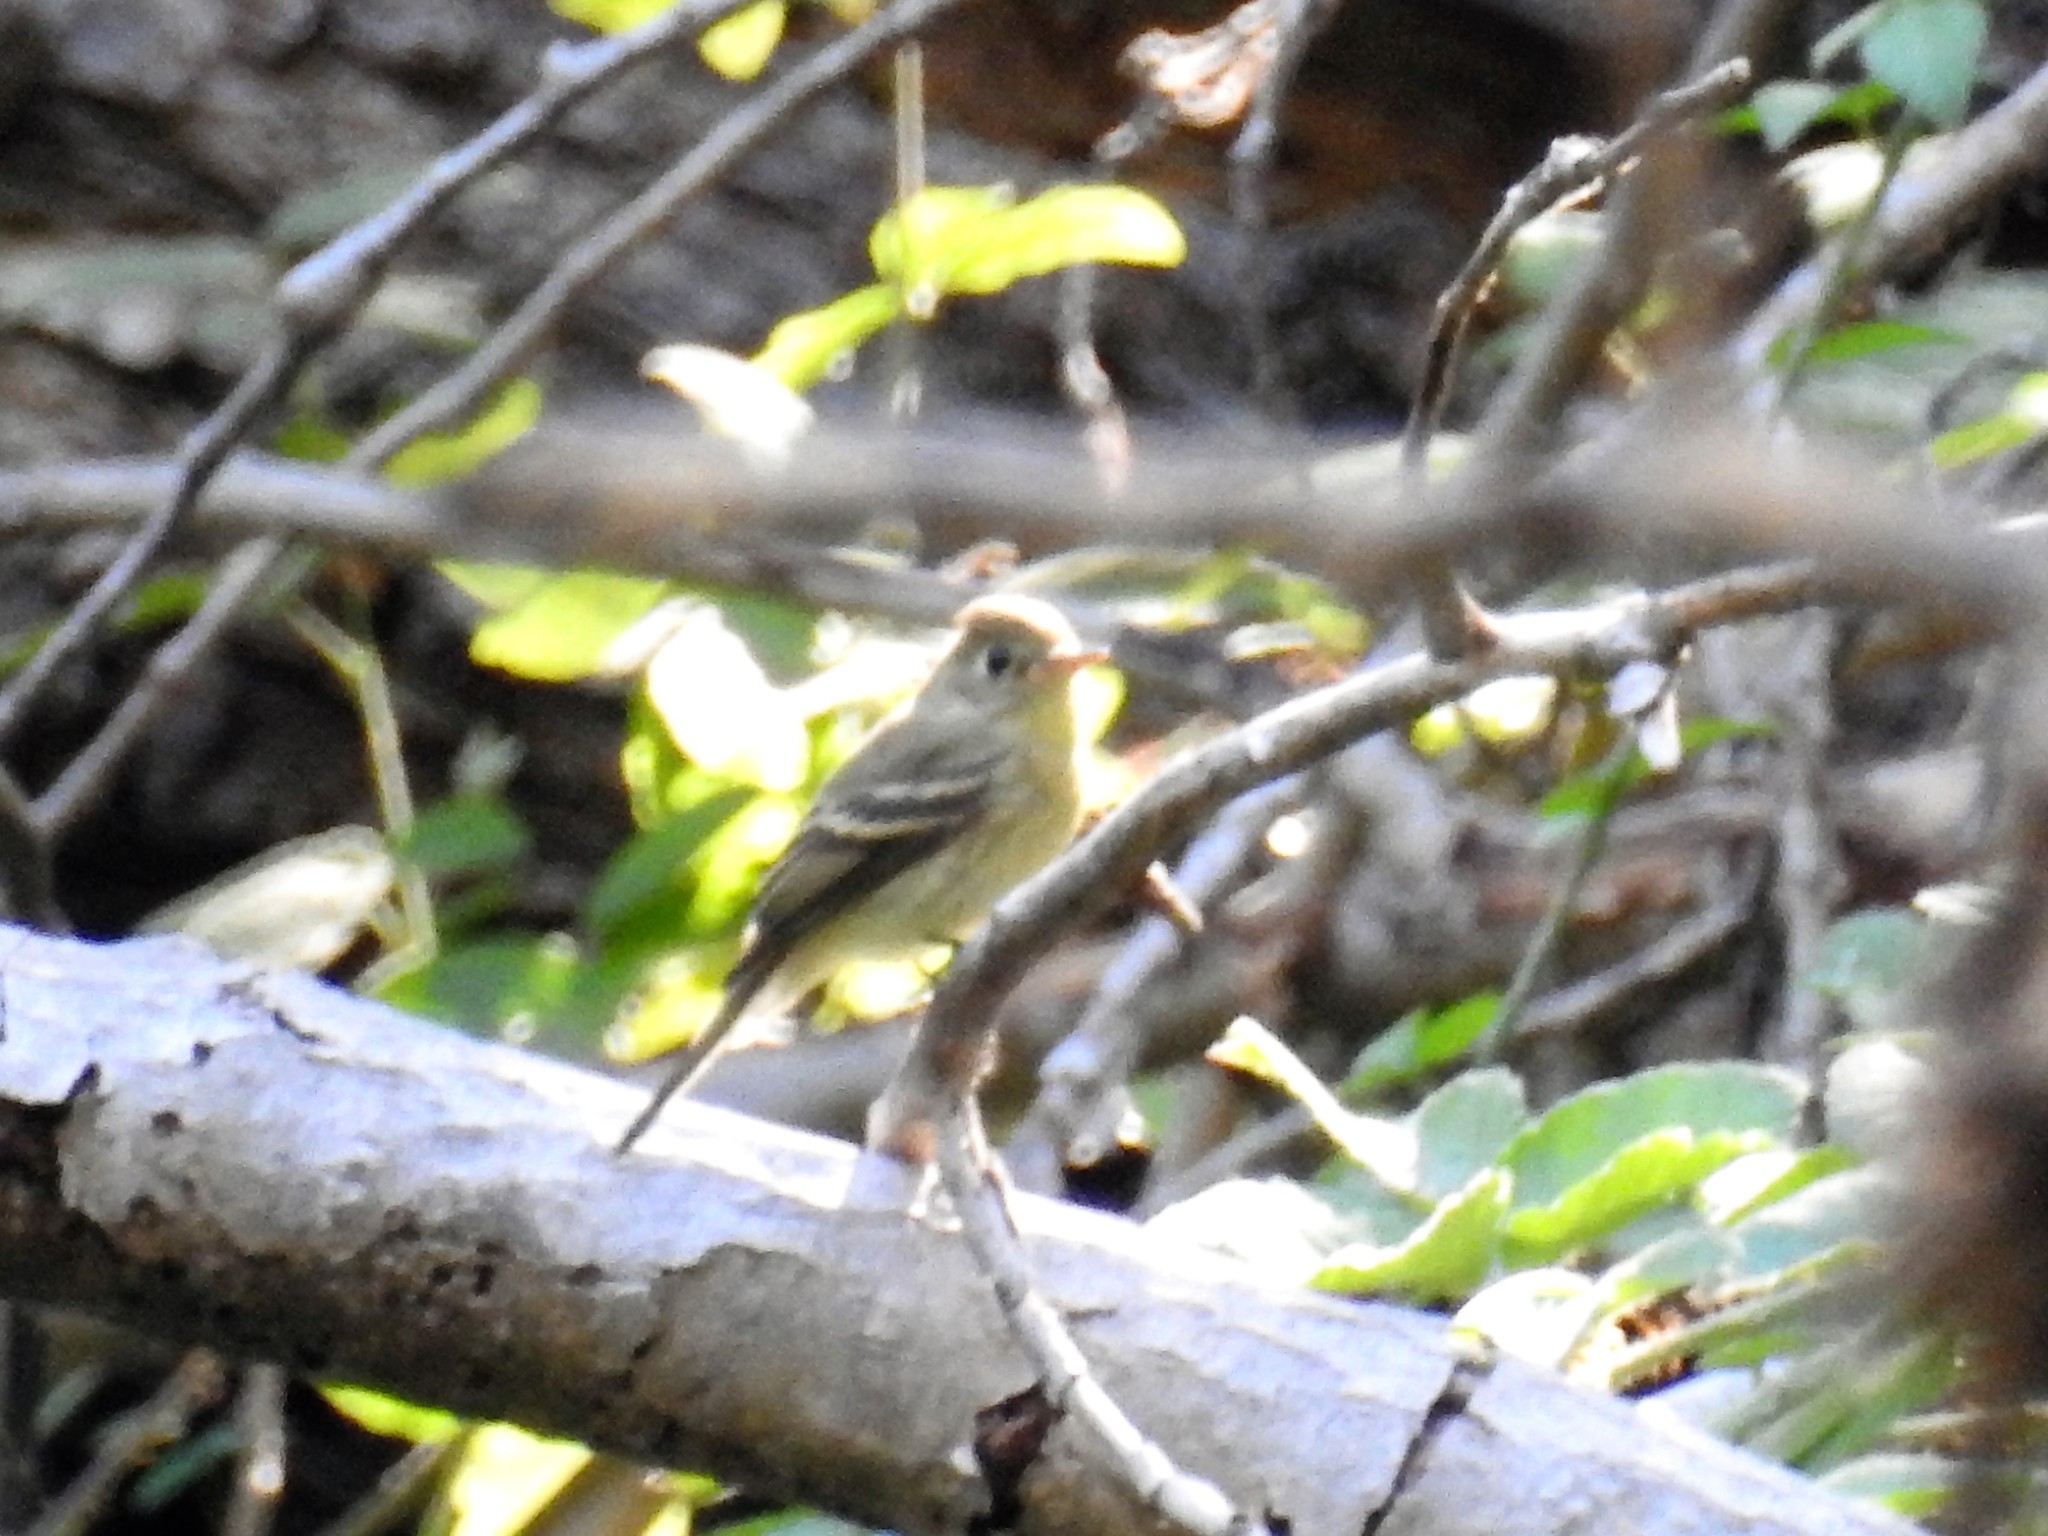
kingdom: Animalia
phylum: Chordata
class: Aves
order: Passeriformes
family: Tyrannidae
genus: Empidonax
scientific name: Empidonax difficilis
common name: Pacific-slope flycatcher
